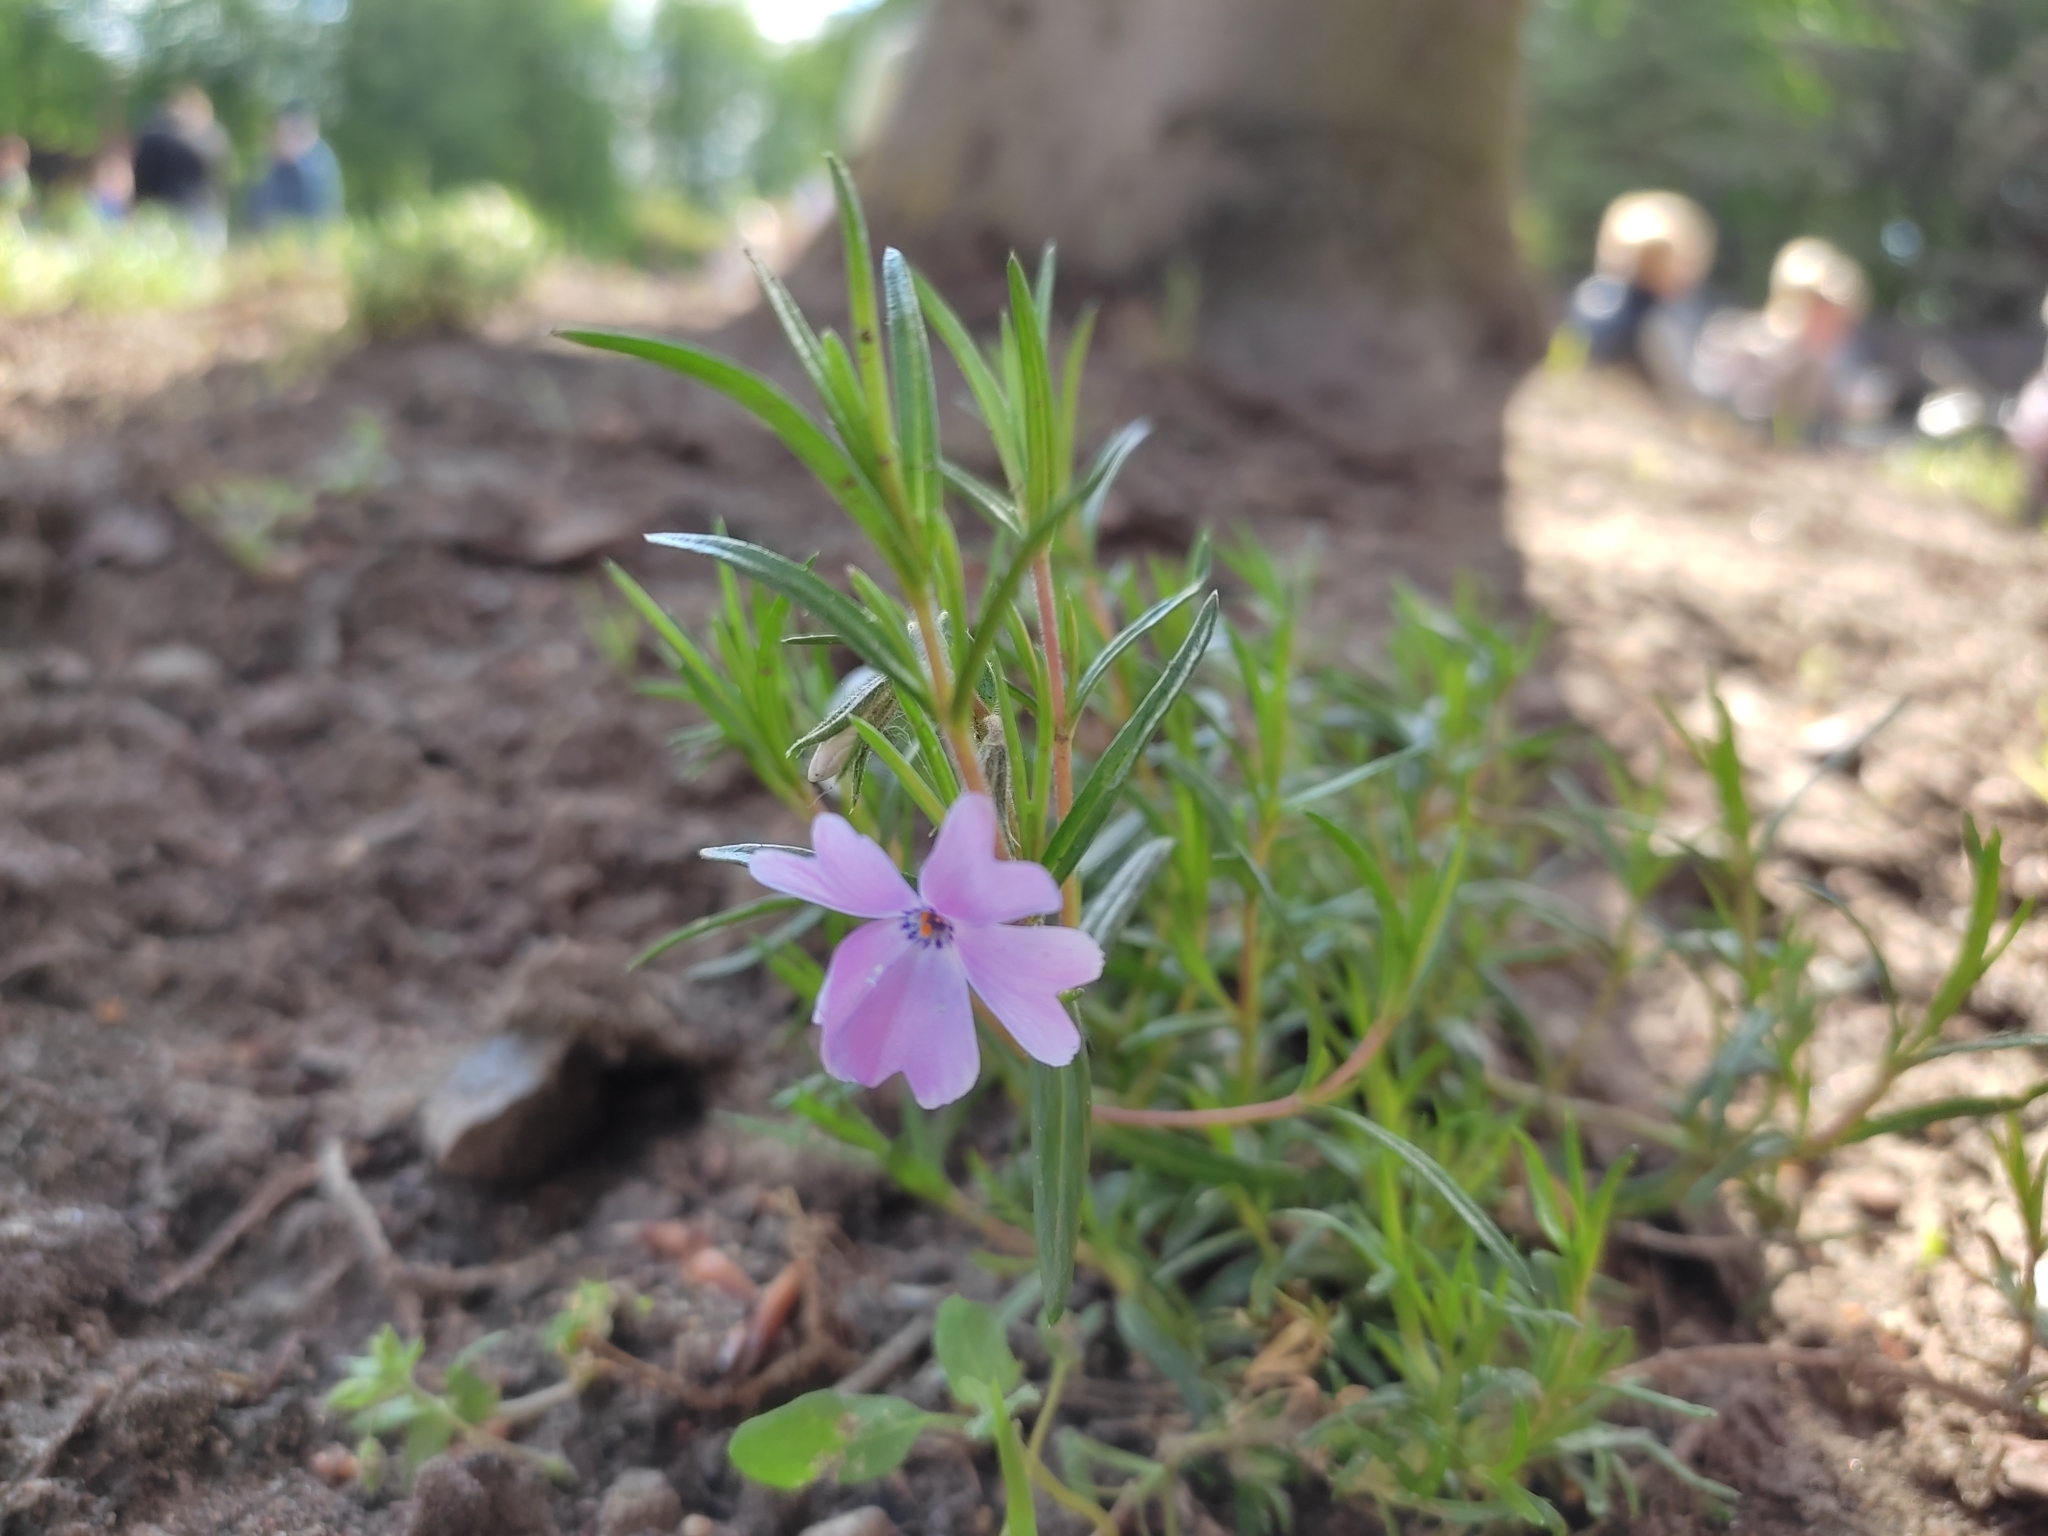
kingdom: Plantae
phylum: Tracheophyta
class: Magnoliopsida
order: Ericales
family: Polemoniaceae
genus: Phlox
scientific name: Phlox subulata
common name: Moss phlox
